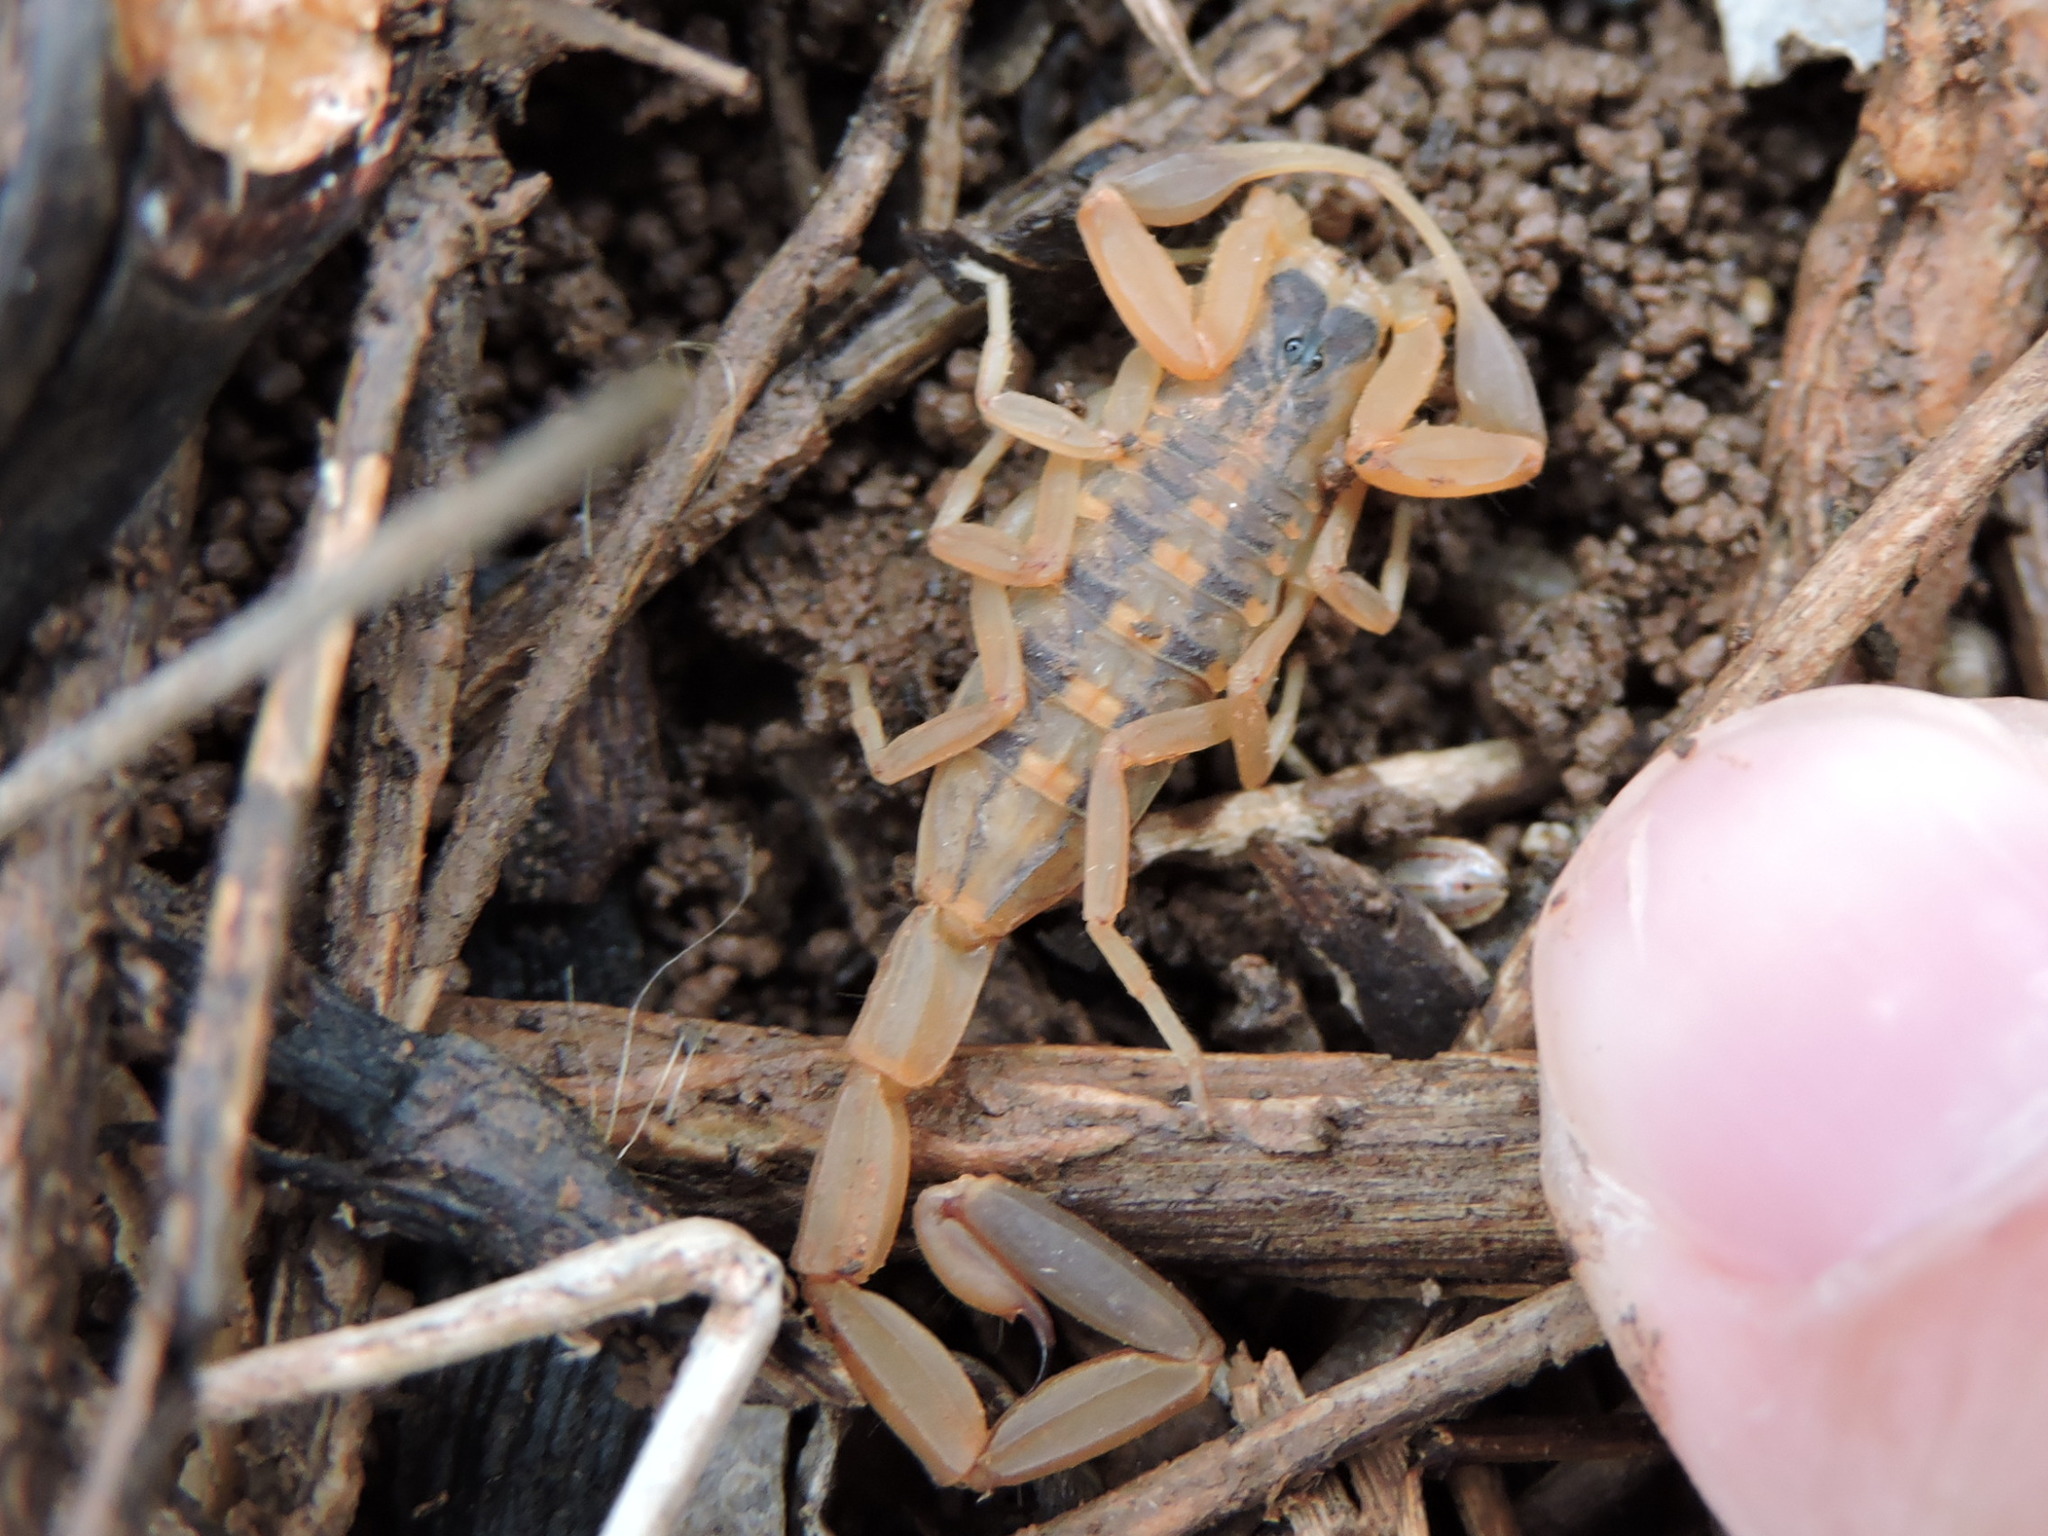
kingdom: Animalia
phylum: Arthropoda
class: Arachnida
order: Scorpiones
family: Buthidae
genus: Centruroides
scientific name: Centruroides vittatus
